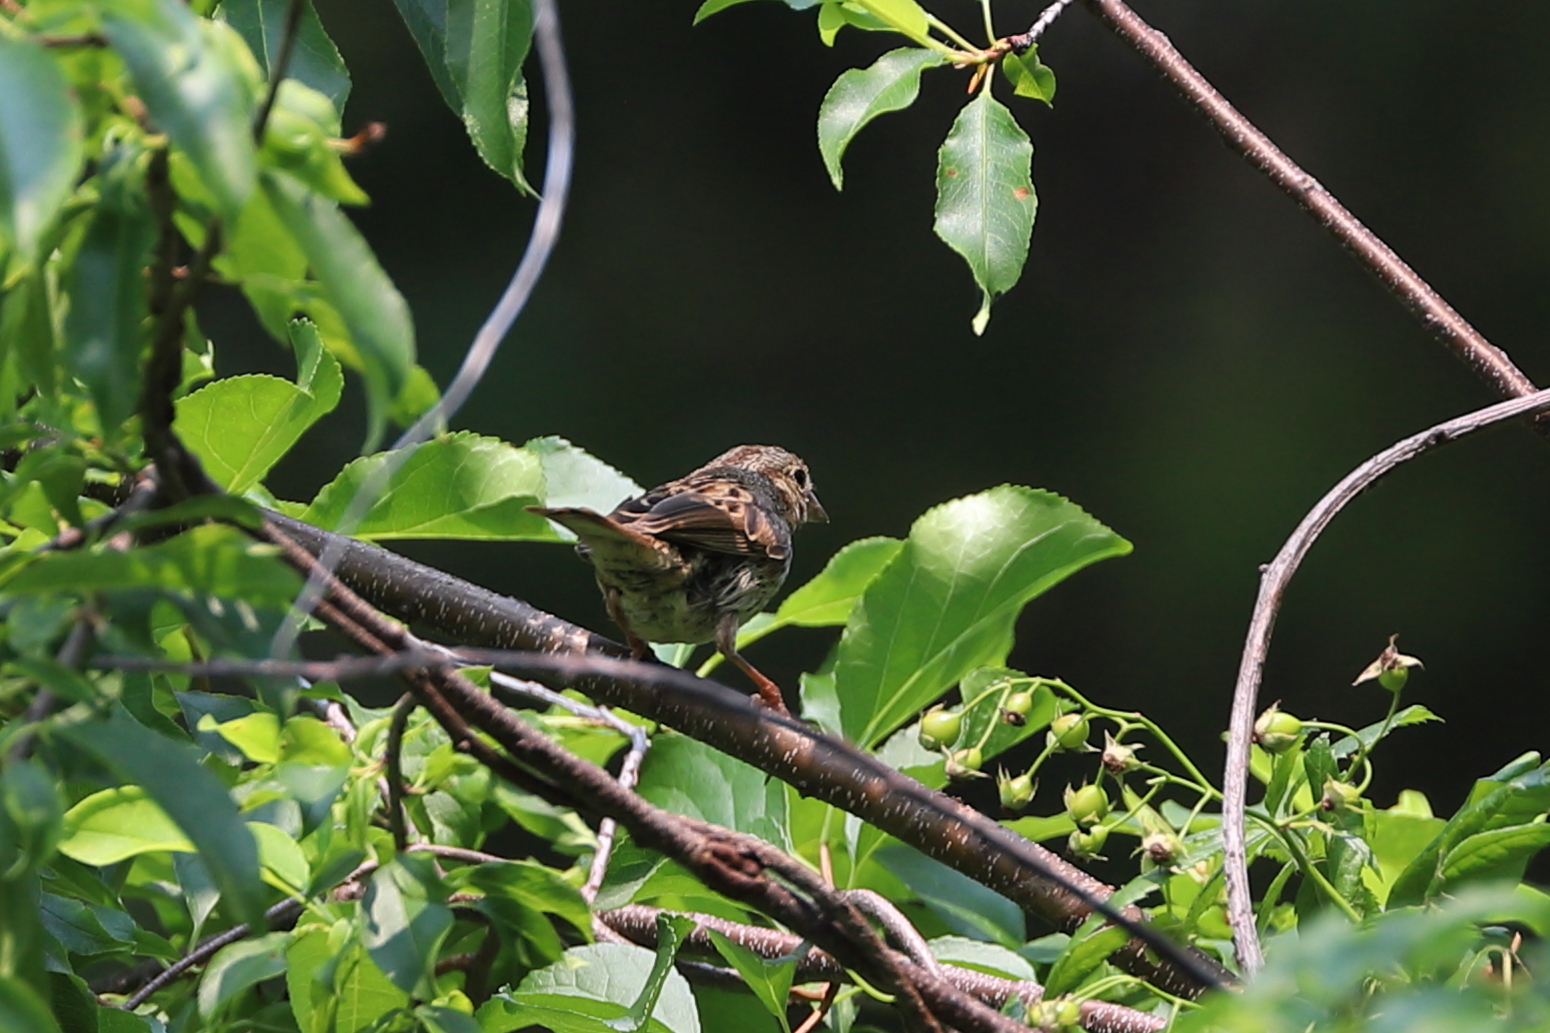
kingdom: Animalia
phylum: Chordata
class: Aves
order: Passeriformes
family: Passerellidae
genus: Melospiza
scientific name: Melospiza melodia
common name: Song sparrow
